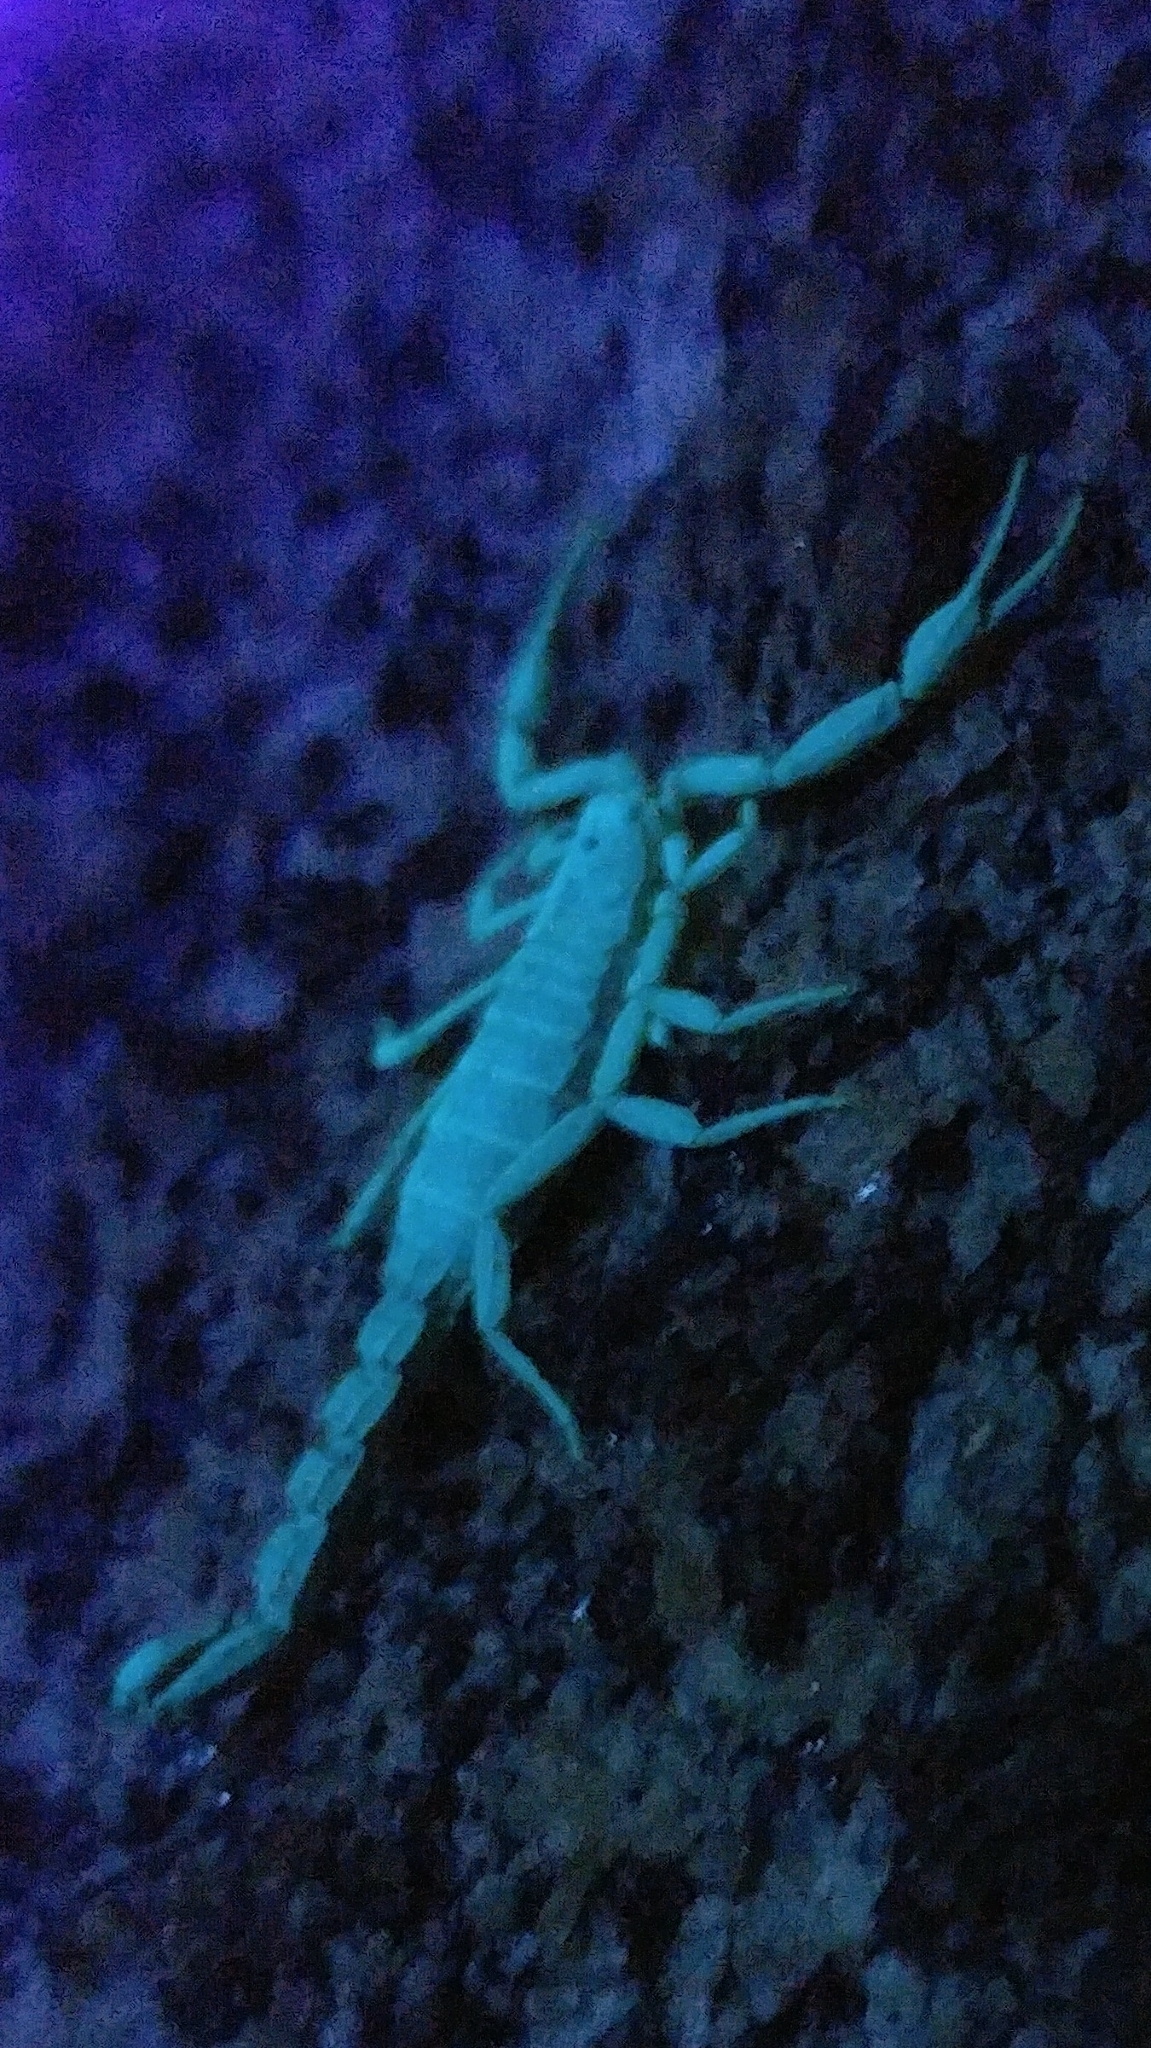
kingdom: Animalia
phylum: Arthropoda
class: Arachnida
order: Scorpiones
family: Vaejovidae
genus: Serradigitus
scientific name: Serradigitus gertschi
